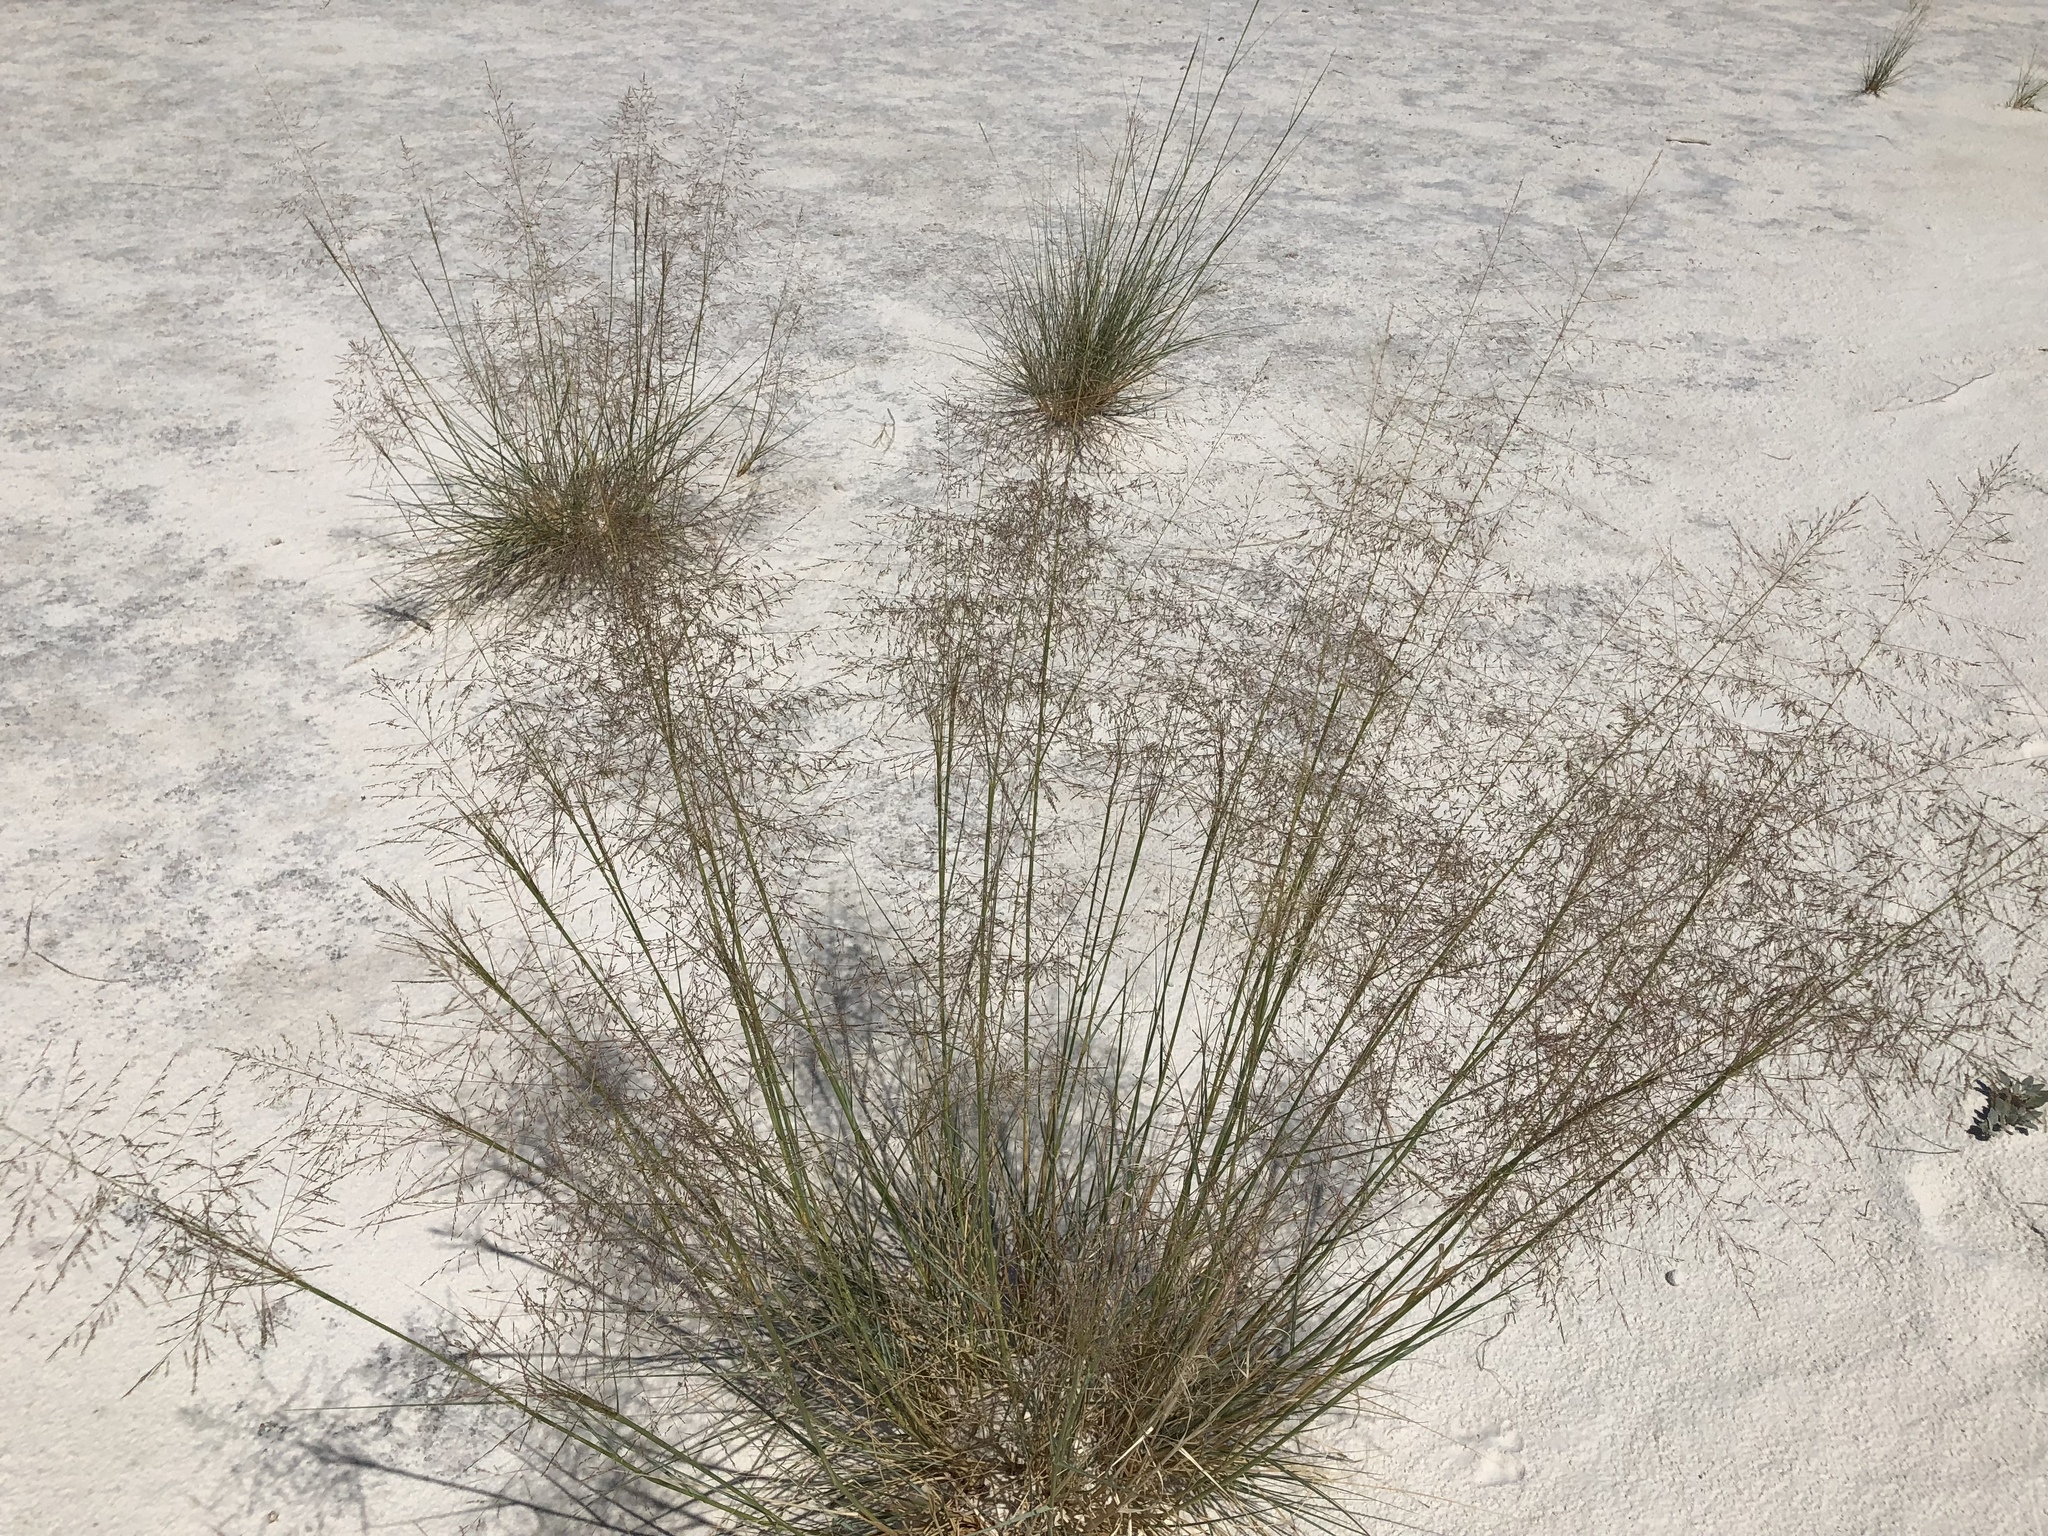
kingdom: Plantae
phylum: Tracheophyta
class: Liliopsida
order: Poales
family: Poaceae
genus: Sporobolus
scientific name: Sporobolus airoides
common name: Alkali sacaton
